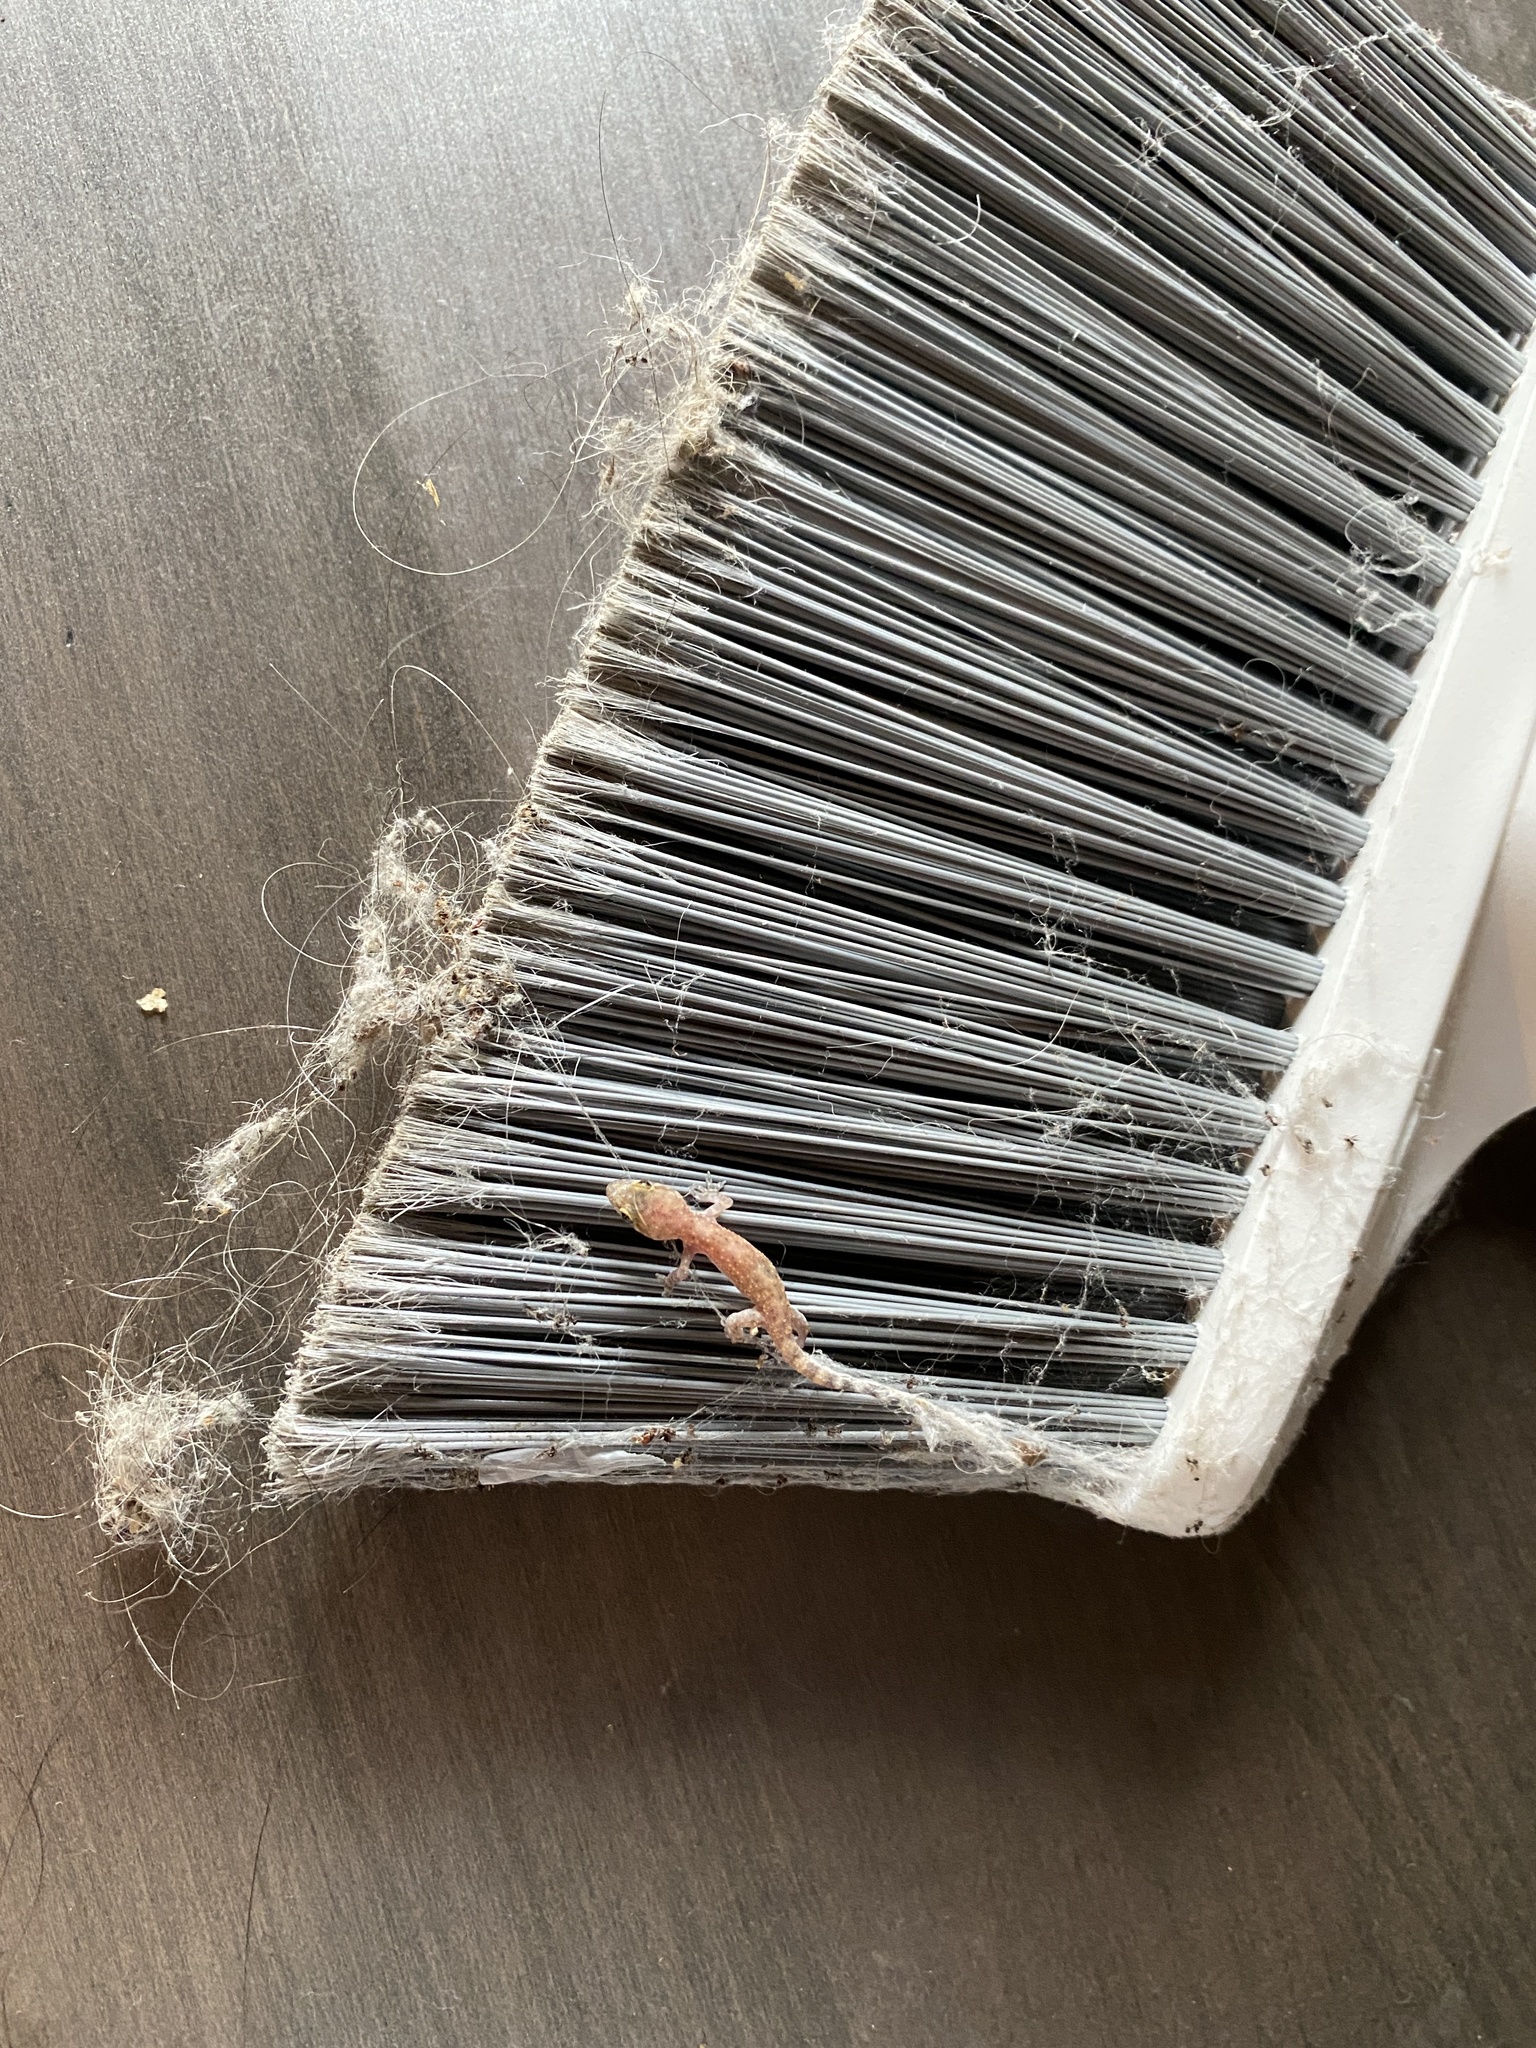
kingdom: Animalia
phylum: Chordata
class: Squamata
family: Gekkonidae
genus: Hemidactylus
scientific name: Hemidactylus turcicus
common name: Turkish gecko
